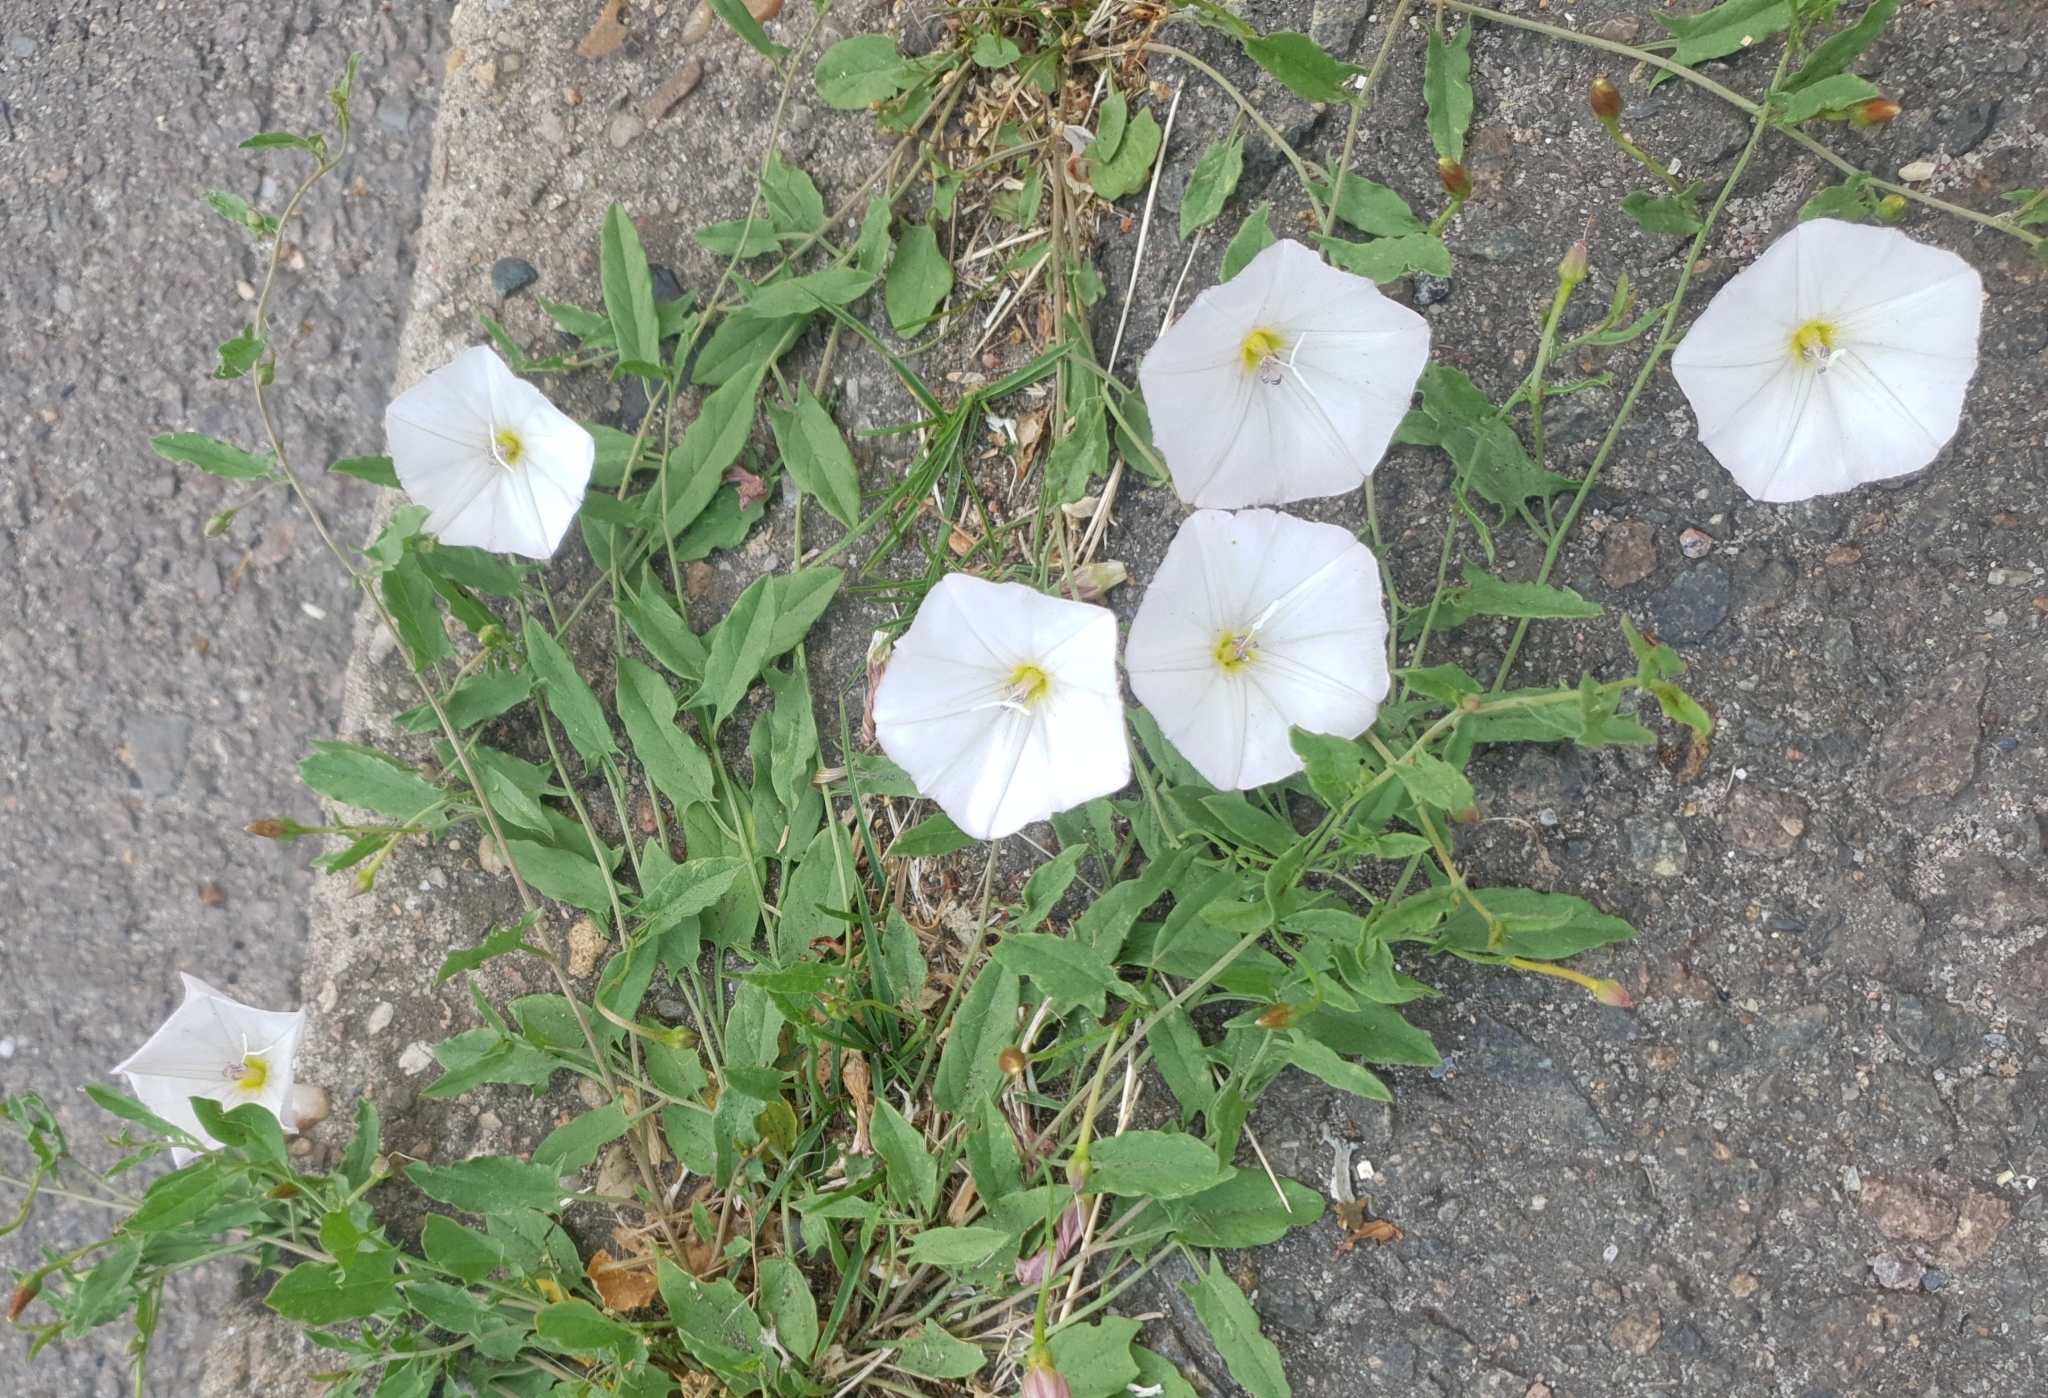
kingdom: Plantae
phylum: Tracheophyta
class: Magnoliopsida
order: Solanales
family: Convolvulaceae
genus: Convolvulus
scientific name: Convolvulus arvensis
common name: Field bindweed
